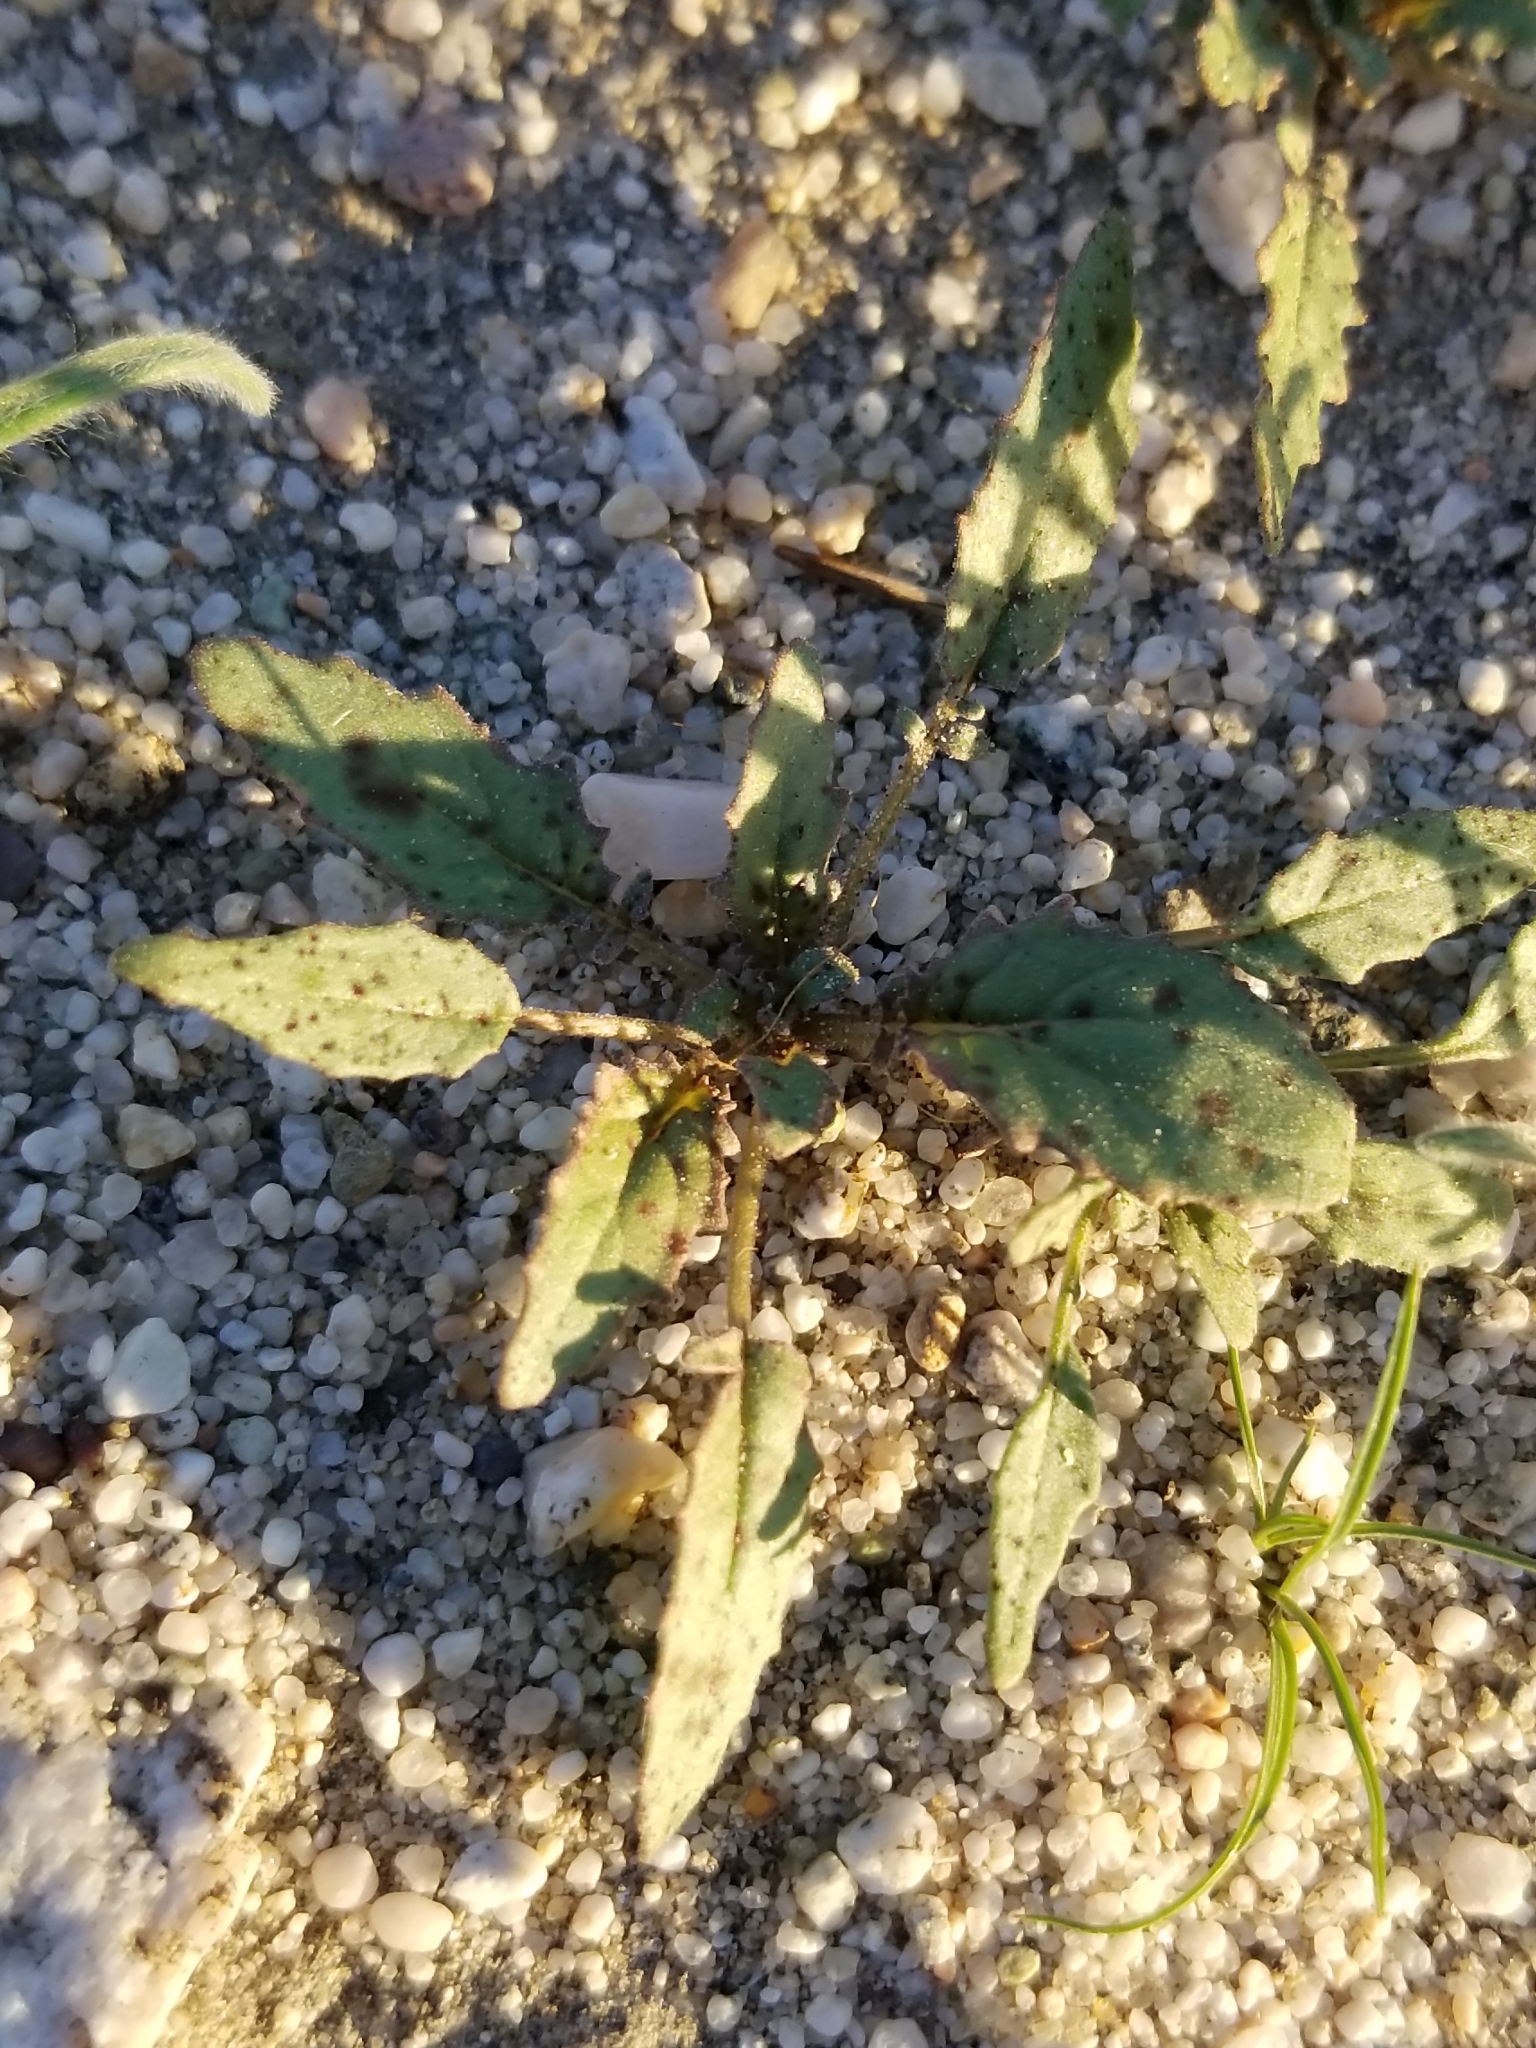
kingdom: Plantae
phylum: Tracheophyta
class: Magnoliopsida
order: Myrtales
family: Onagraceae
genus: Chylismia
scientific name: Chylismia claviformis
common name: Browneyes
